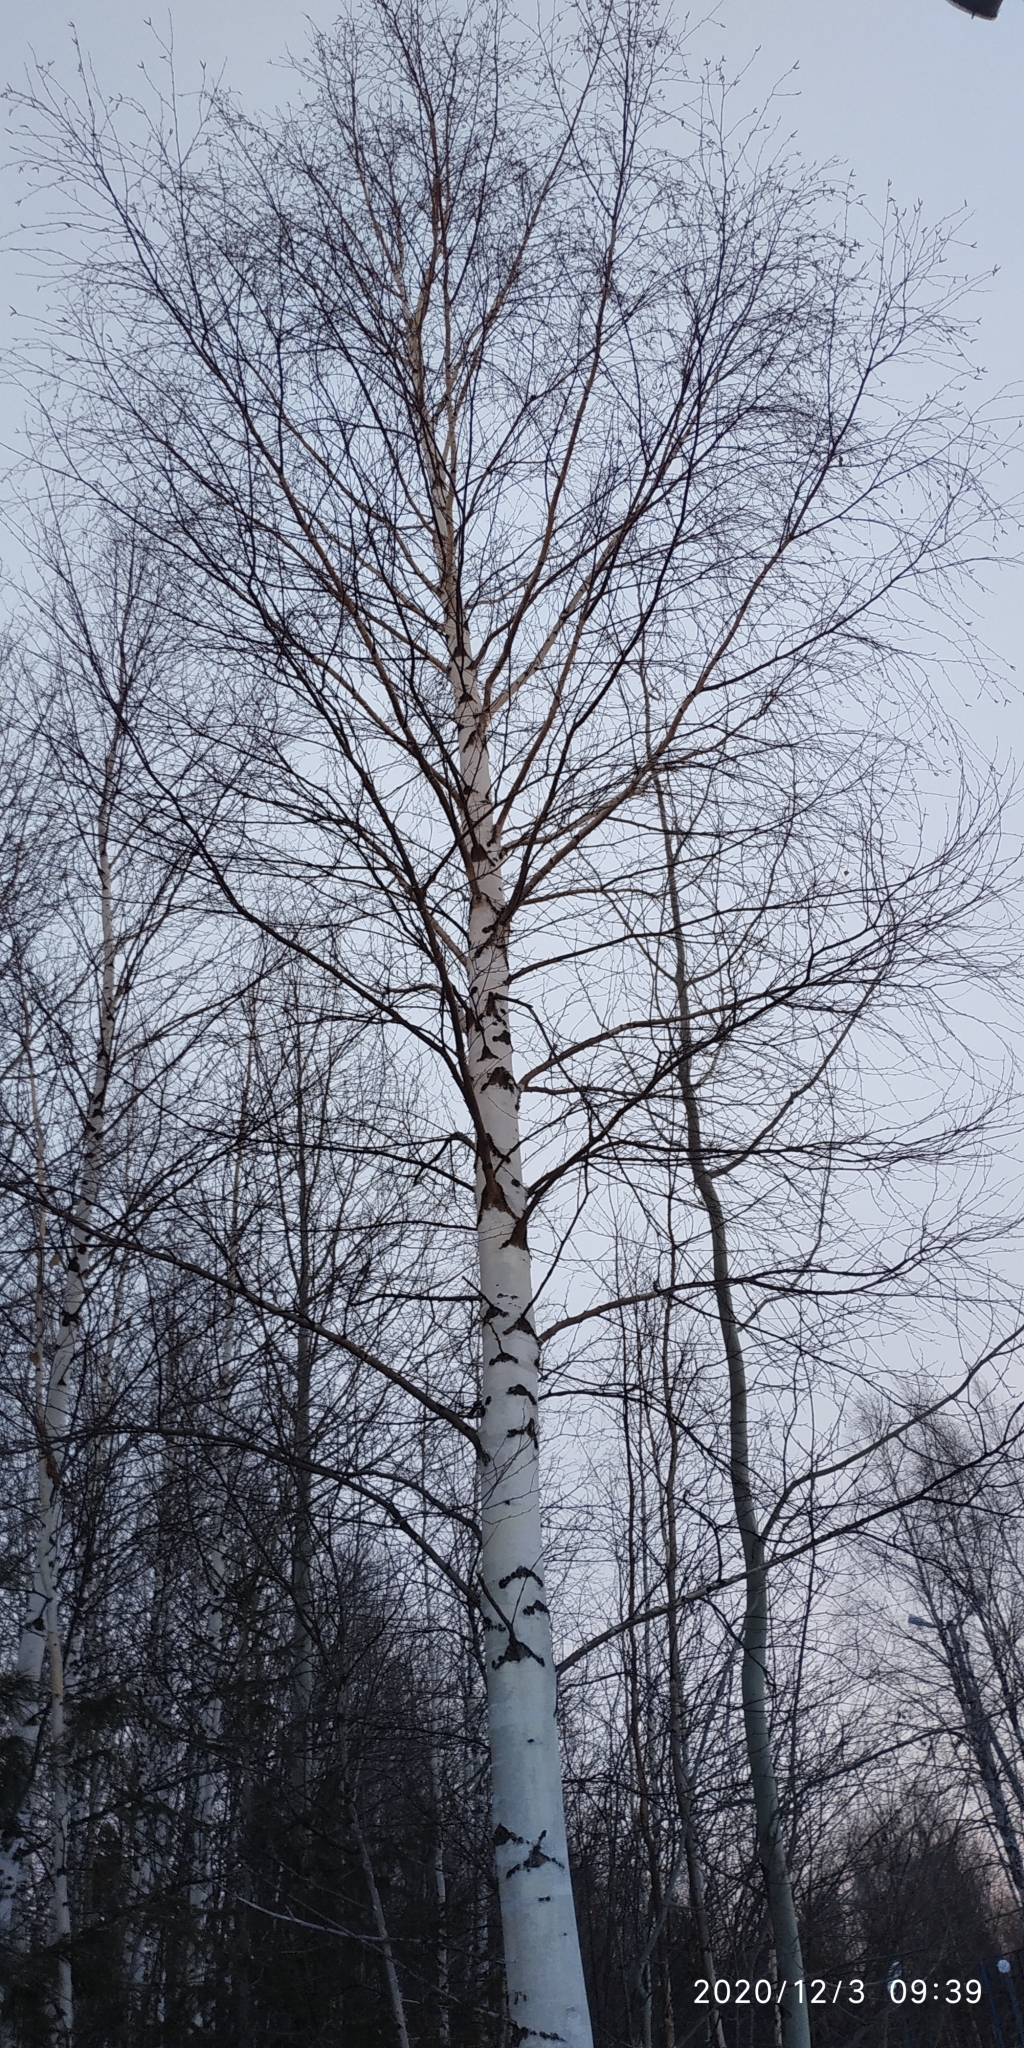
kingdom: Plantae
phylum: Tracheophyta
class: Magnoliopsida
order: Fagales
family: Betulaceae
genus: Betula
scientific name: Betula pubescens
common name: Downy birch
